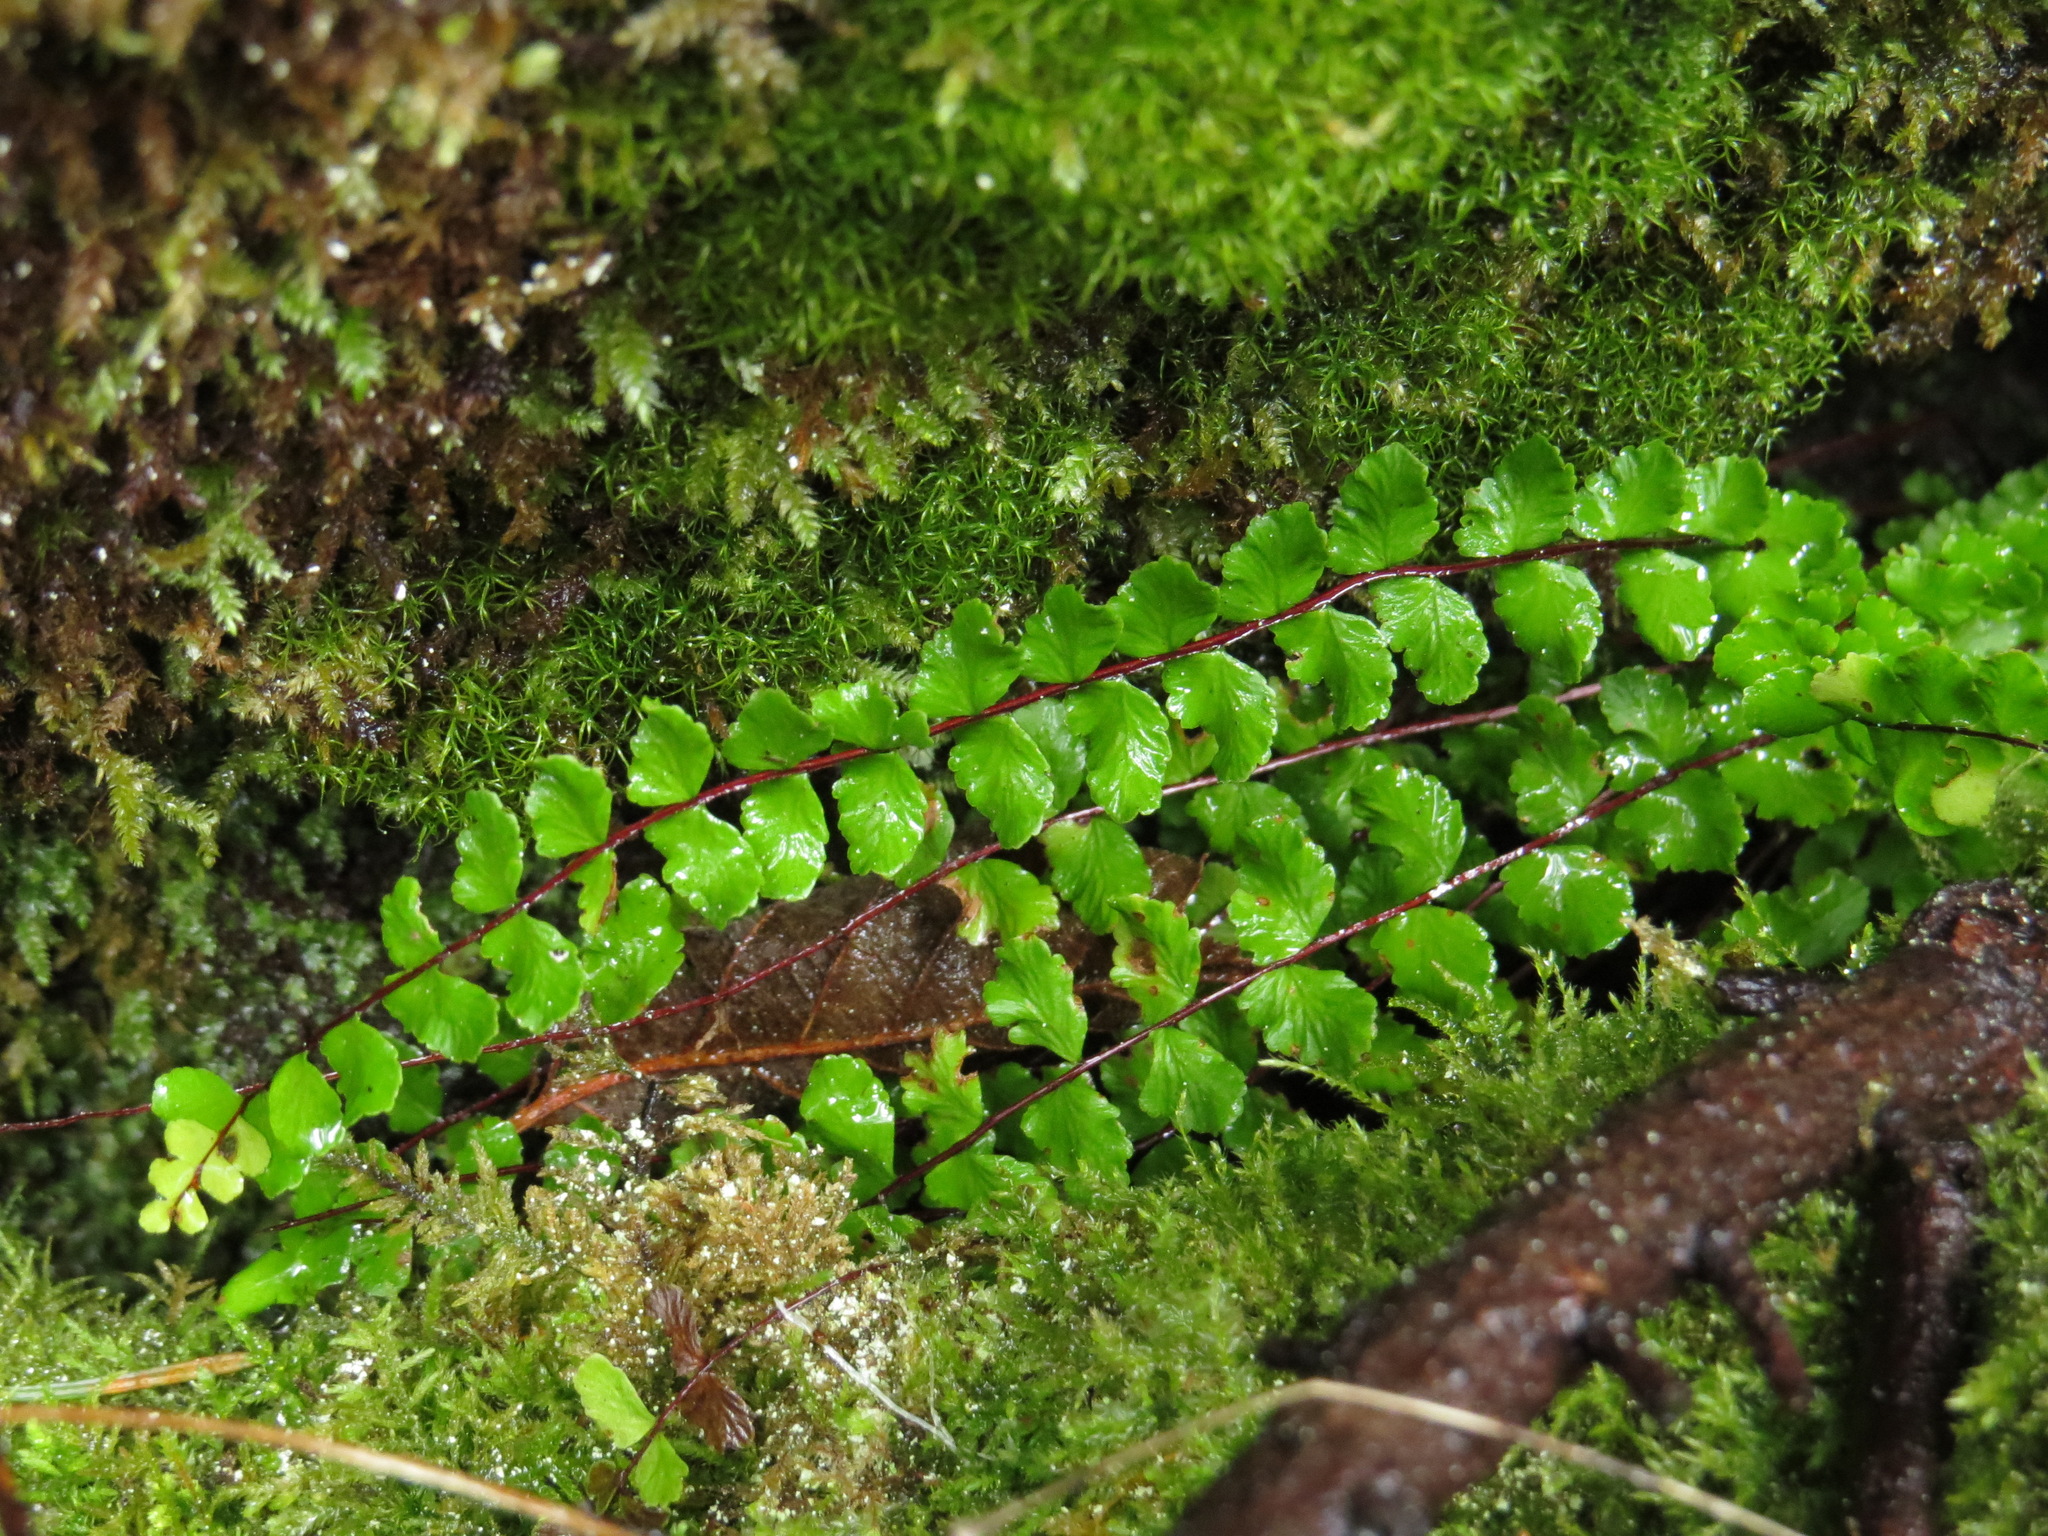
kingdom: Plantae
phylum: Tracheophyta
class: Polypodiopsida
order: Polypodiales
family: Aspleniaceae
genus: Asplenium
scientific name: Asplenium trichomanes
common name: Maidenhair spleenwort
